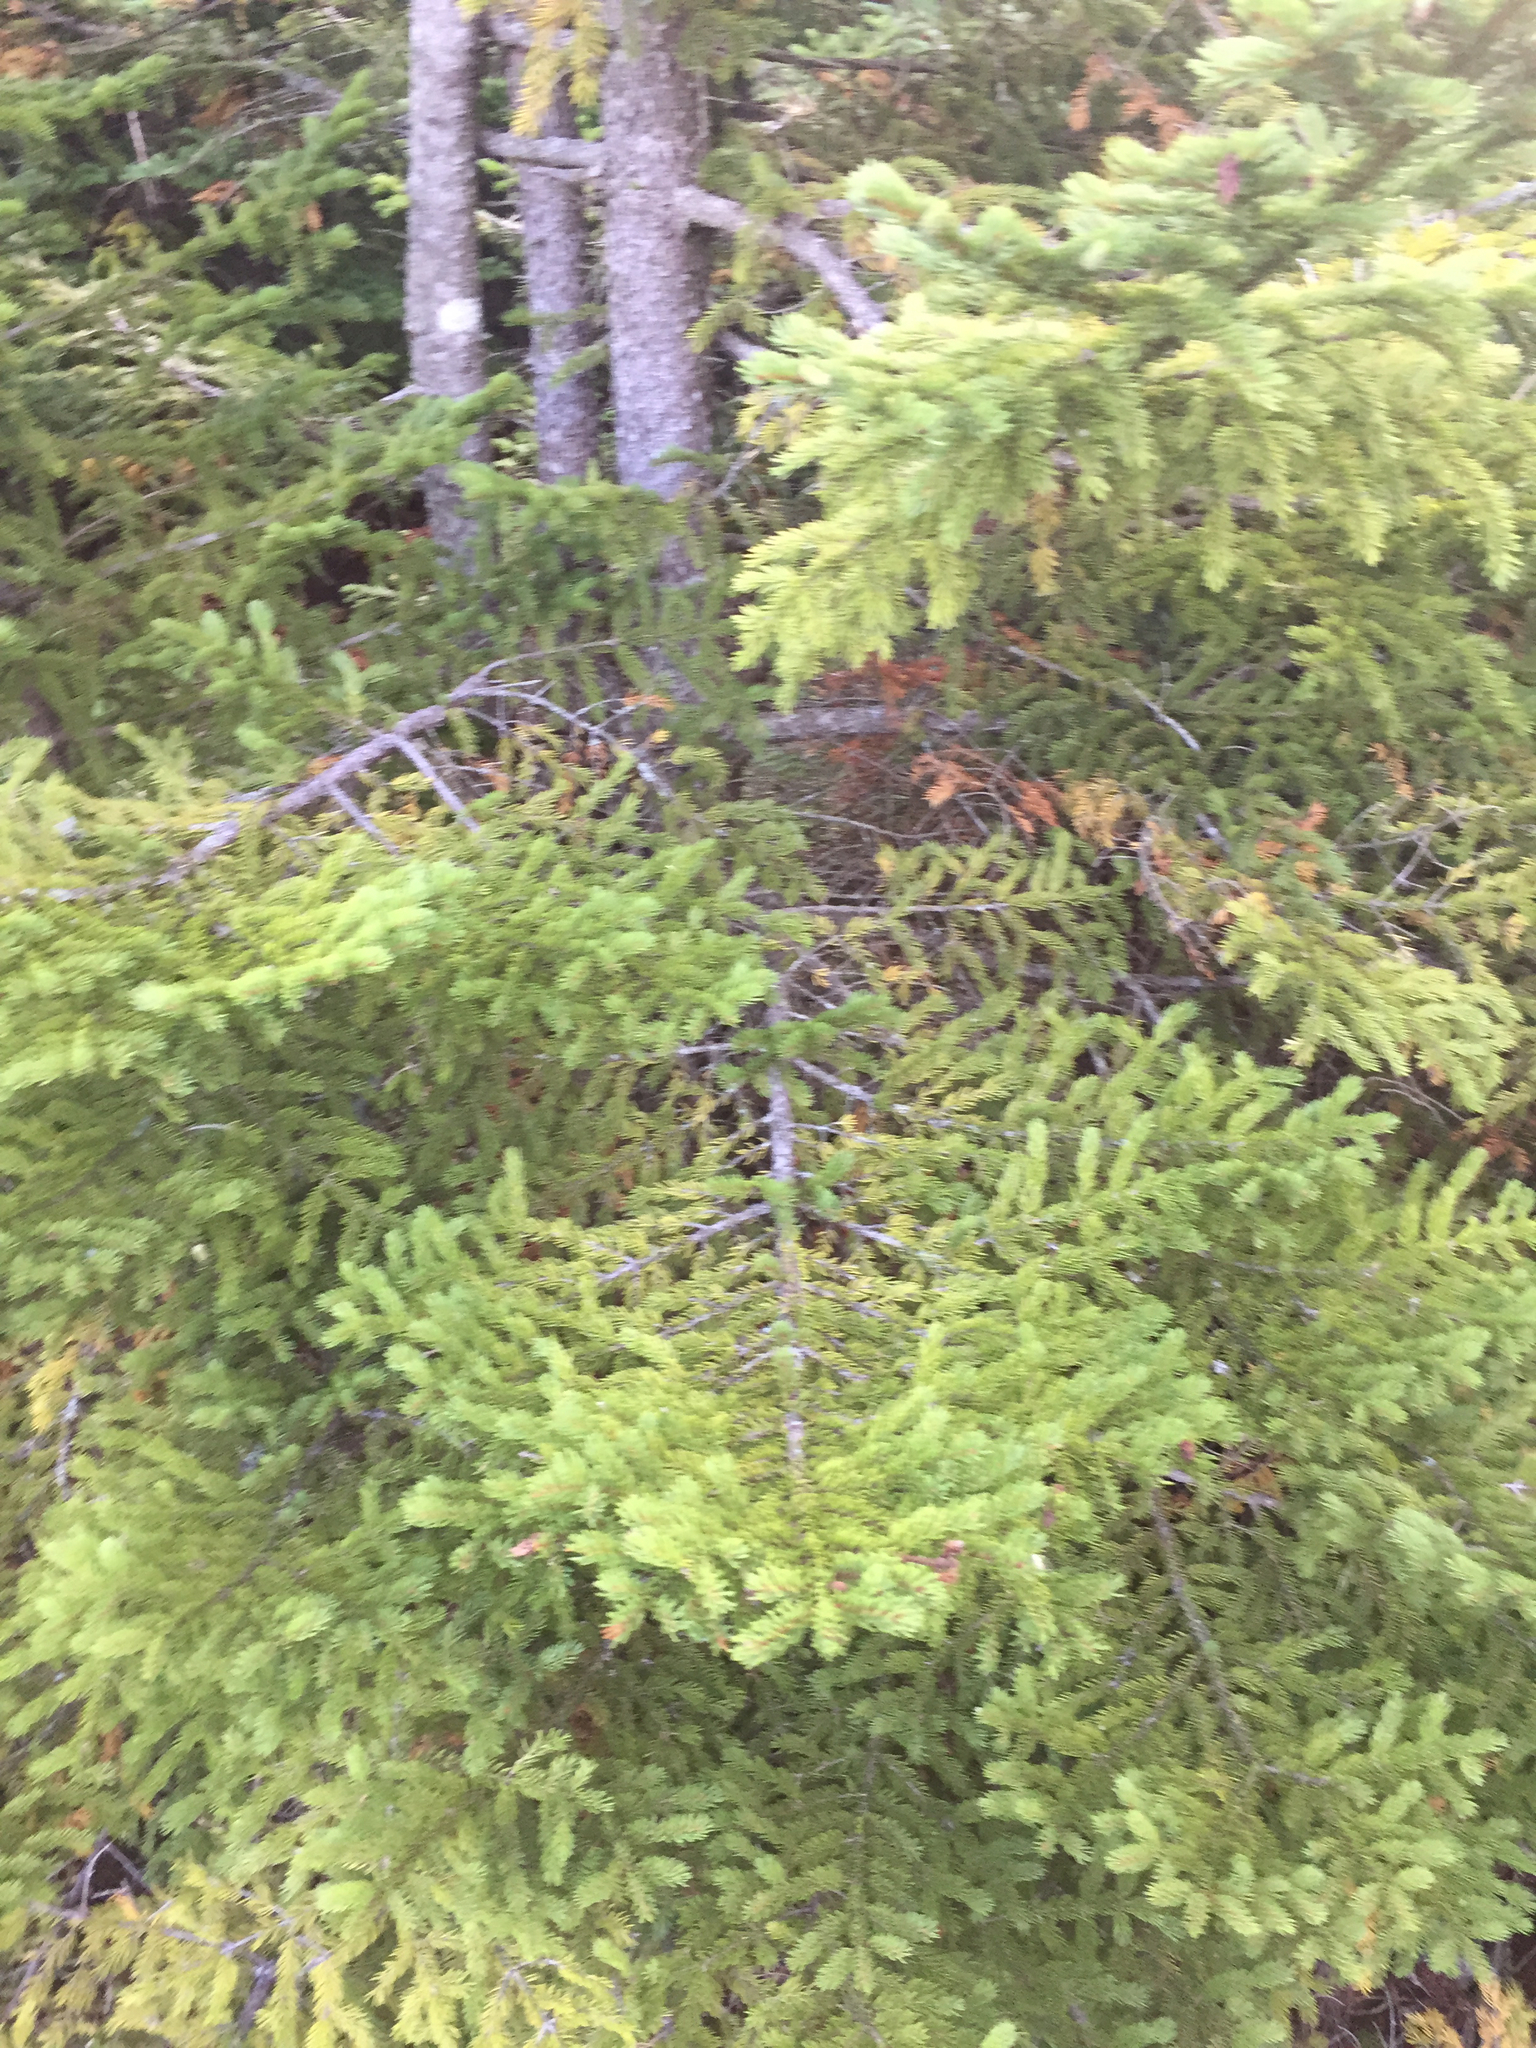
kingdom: Plantae
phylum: Tracheophyta
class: Pinopsida
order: Pinales
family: Pinaceae
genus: Picea
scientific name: Picea rubens
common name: Red spruce
